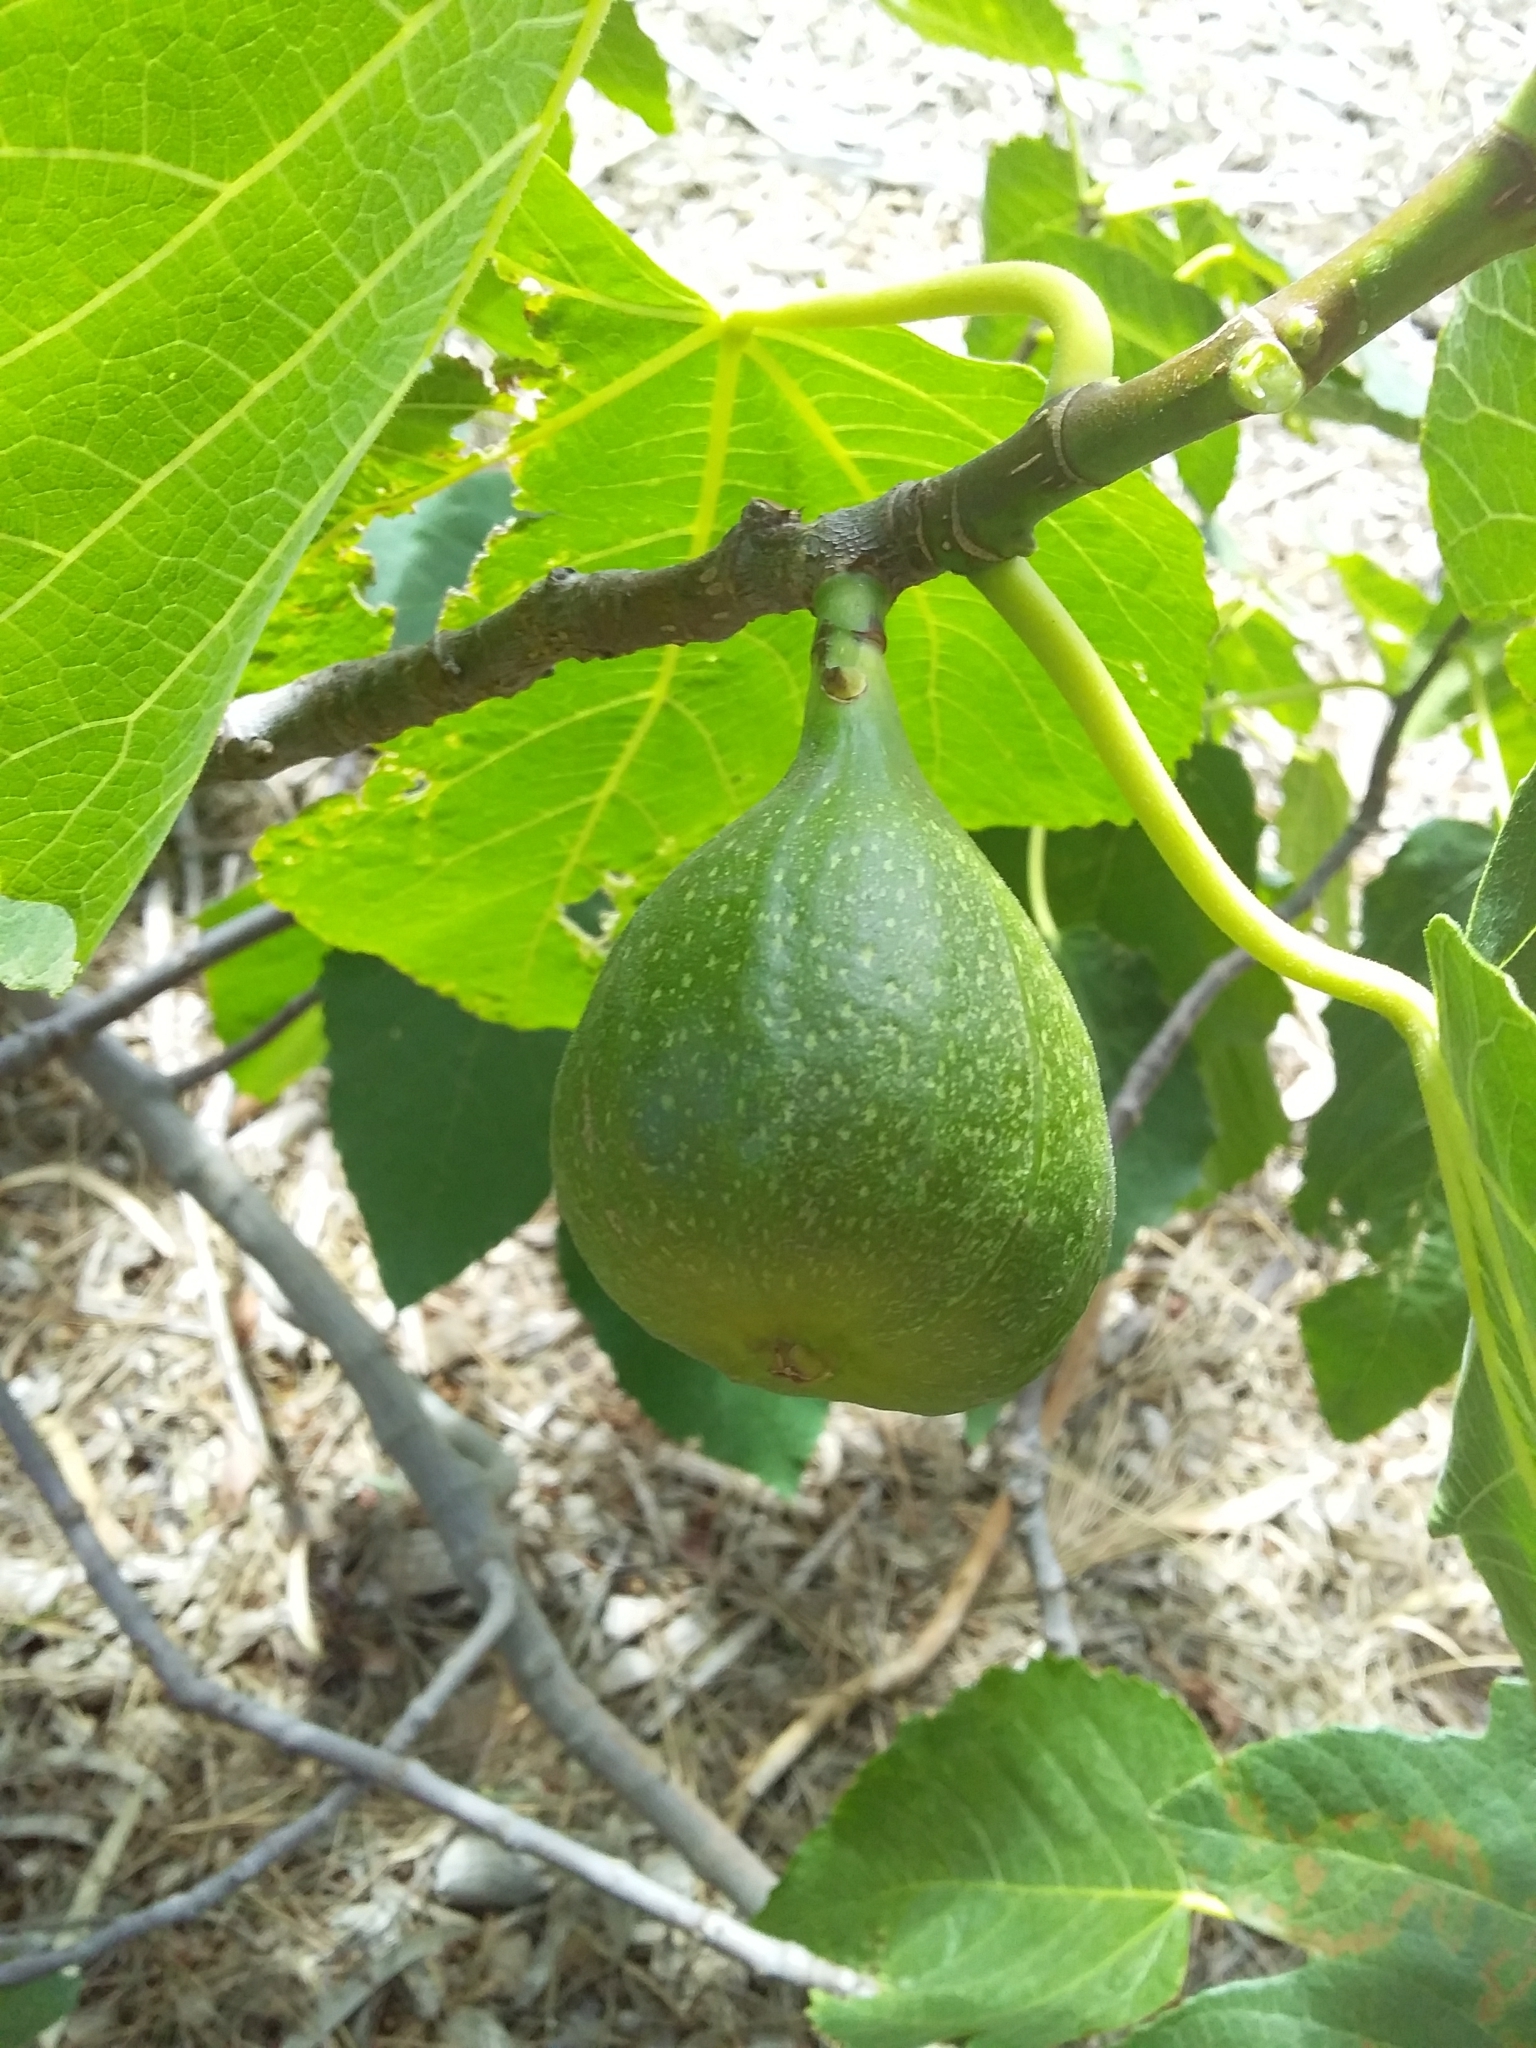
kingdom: Plantae
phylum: Tracheophyta
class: Magnoliopsida
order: Rosales
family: Moraceae
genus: Ficus
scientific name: Ficus carica
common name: Fig
